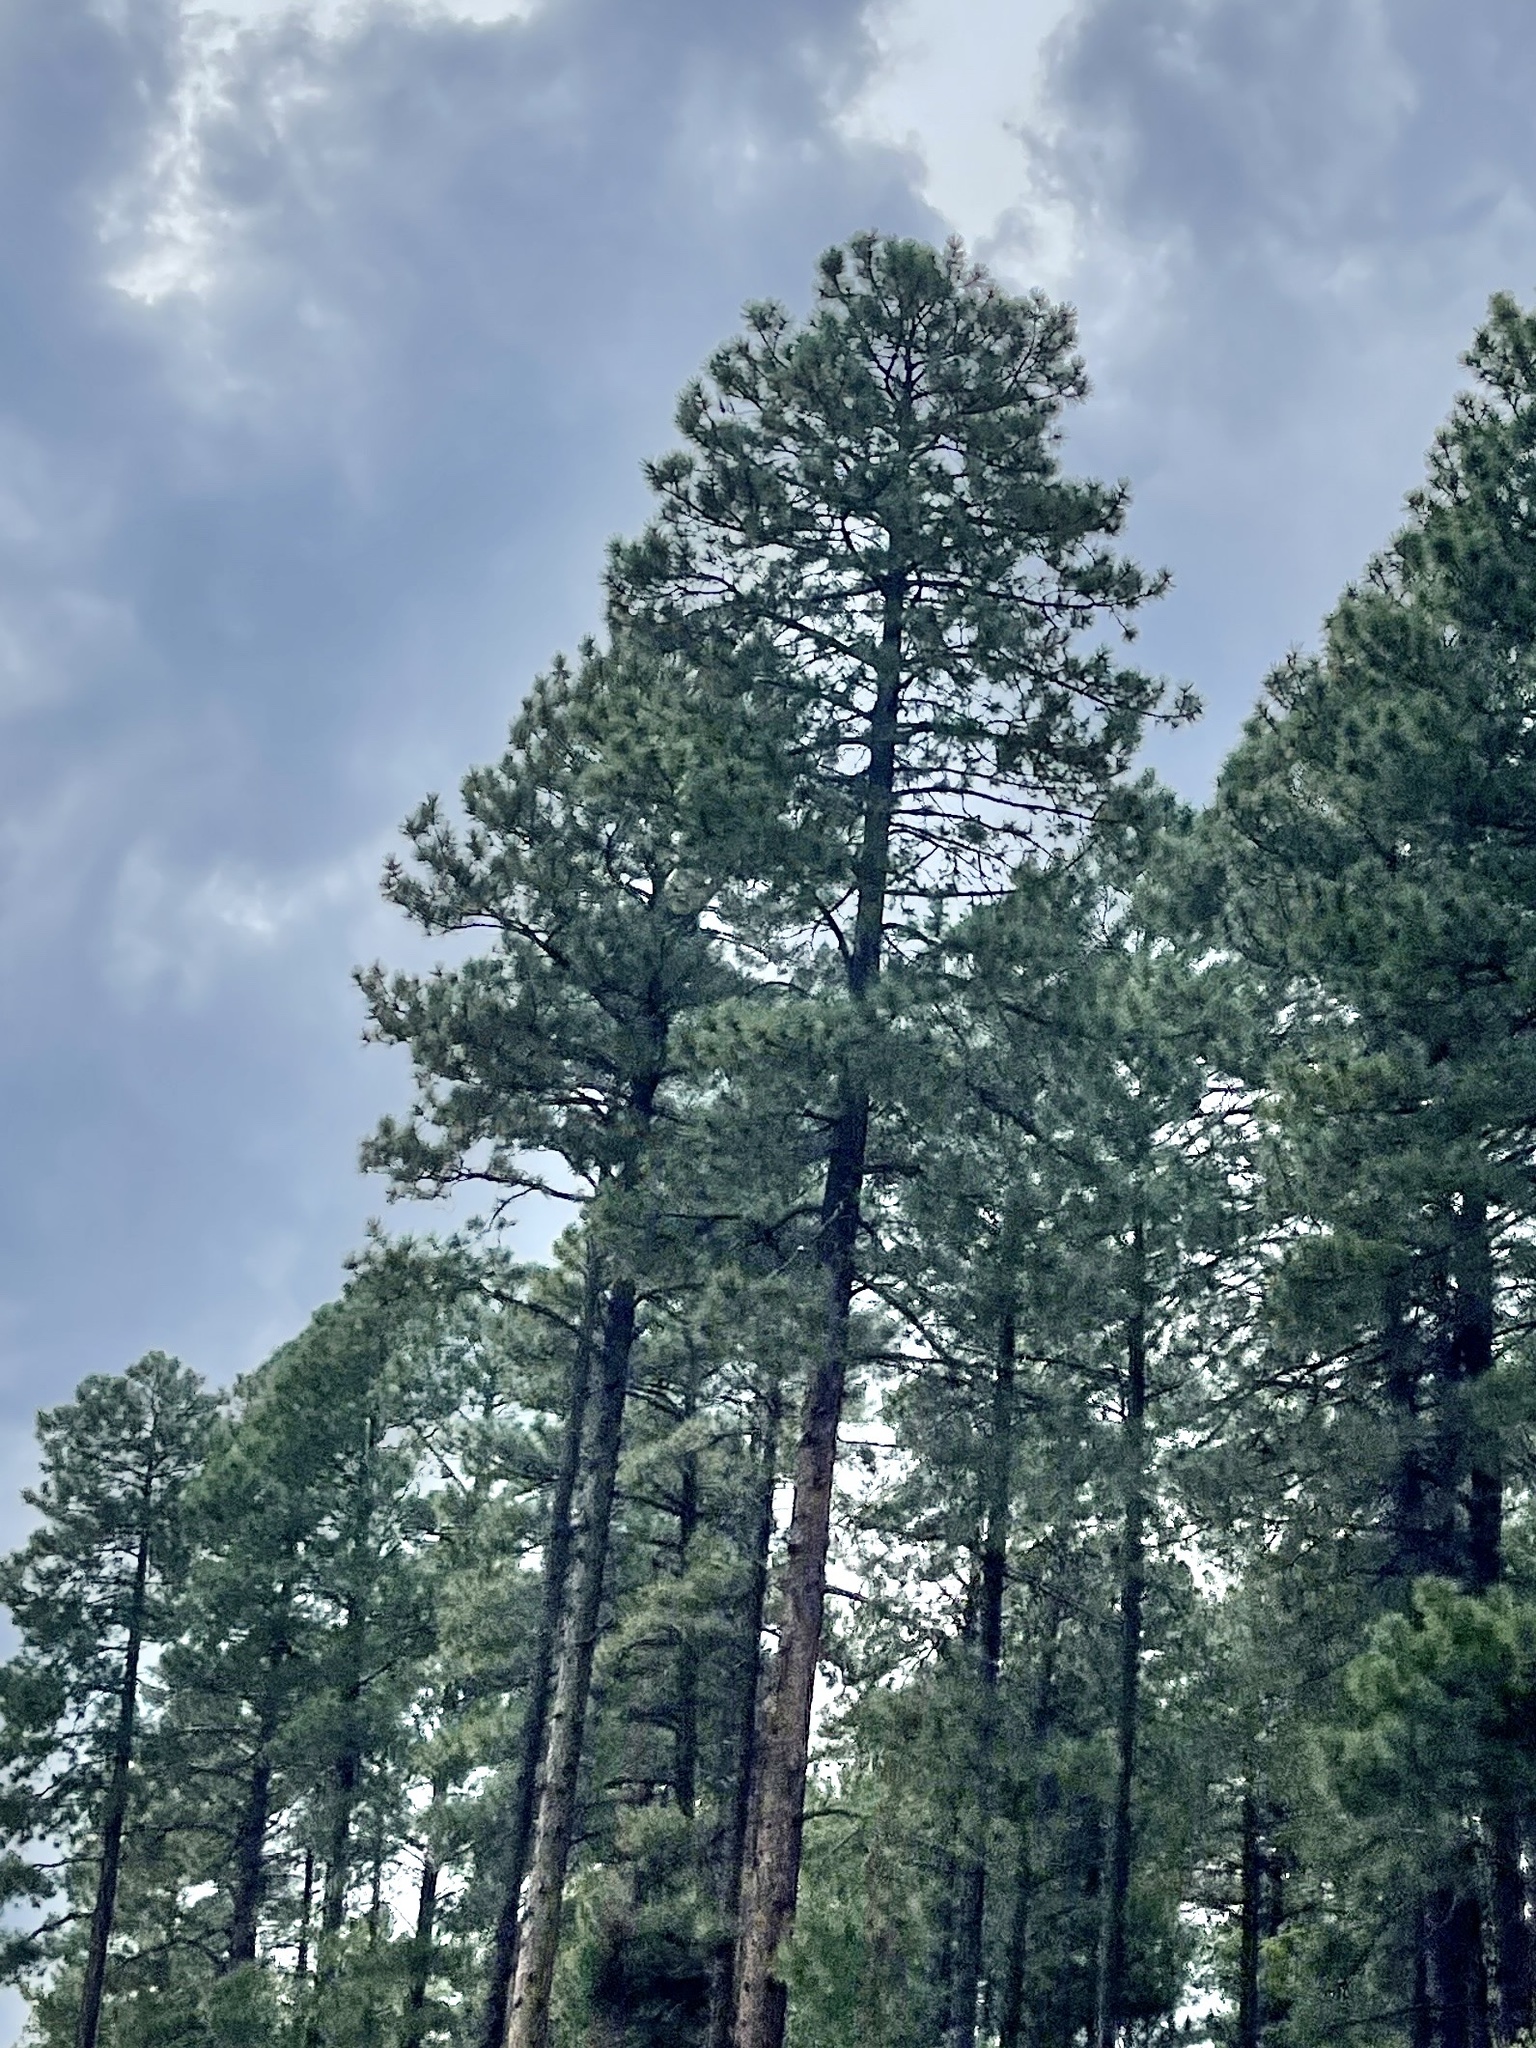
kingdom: Plantae
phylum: Tracheophyta
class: Pinopsida
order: Pinales
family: Pinaceae
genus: Pinus
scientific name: Pinus ponderosa
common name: Western yellow-pine
